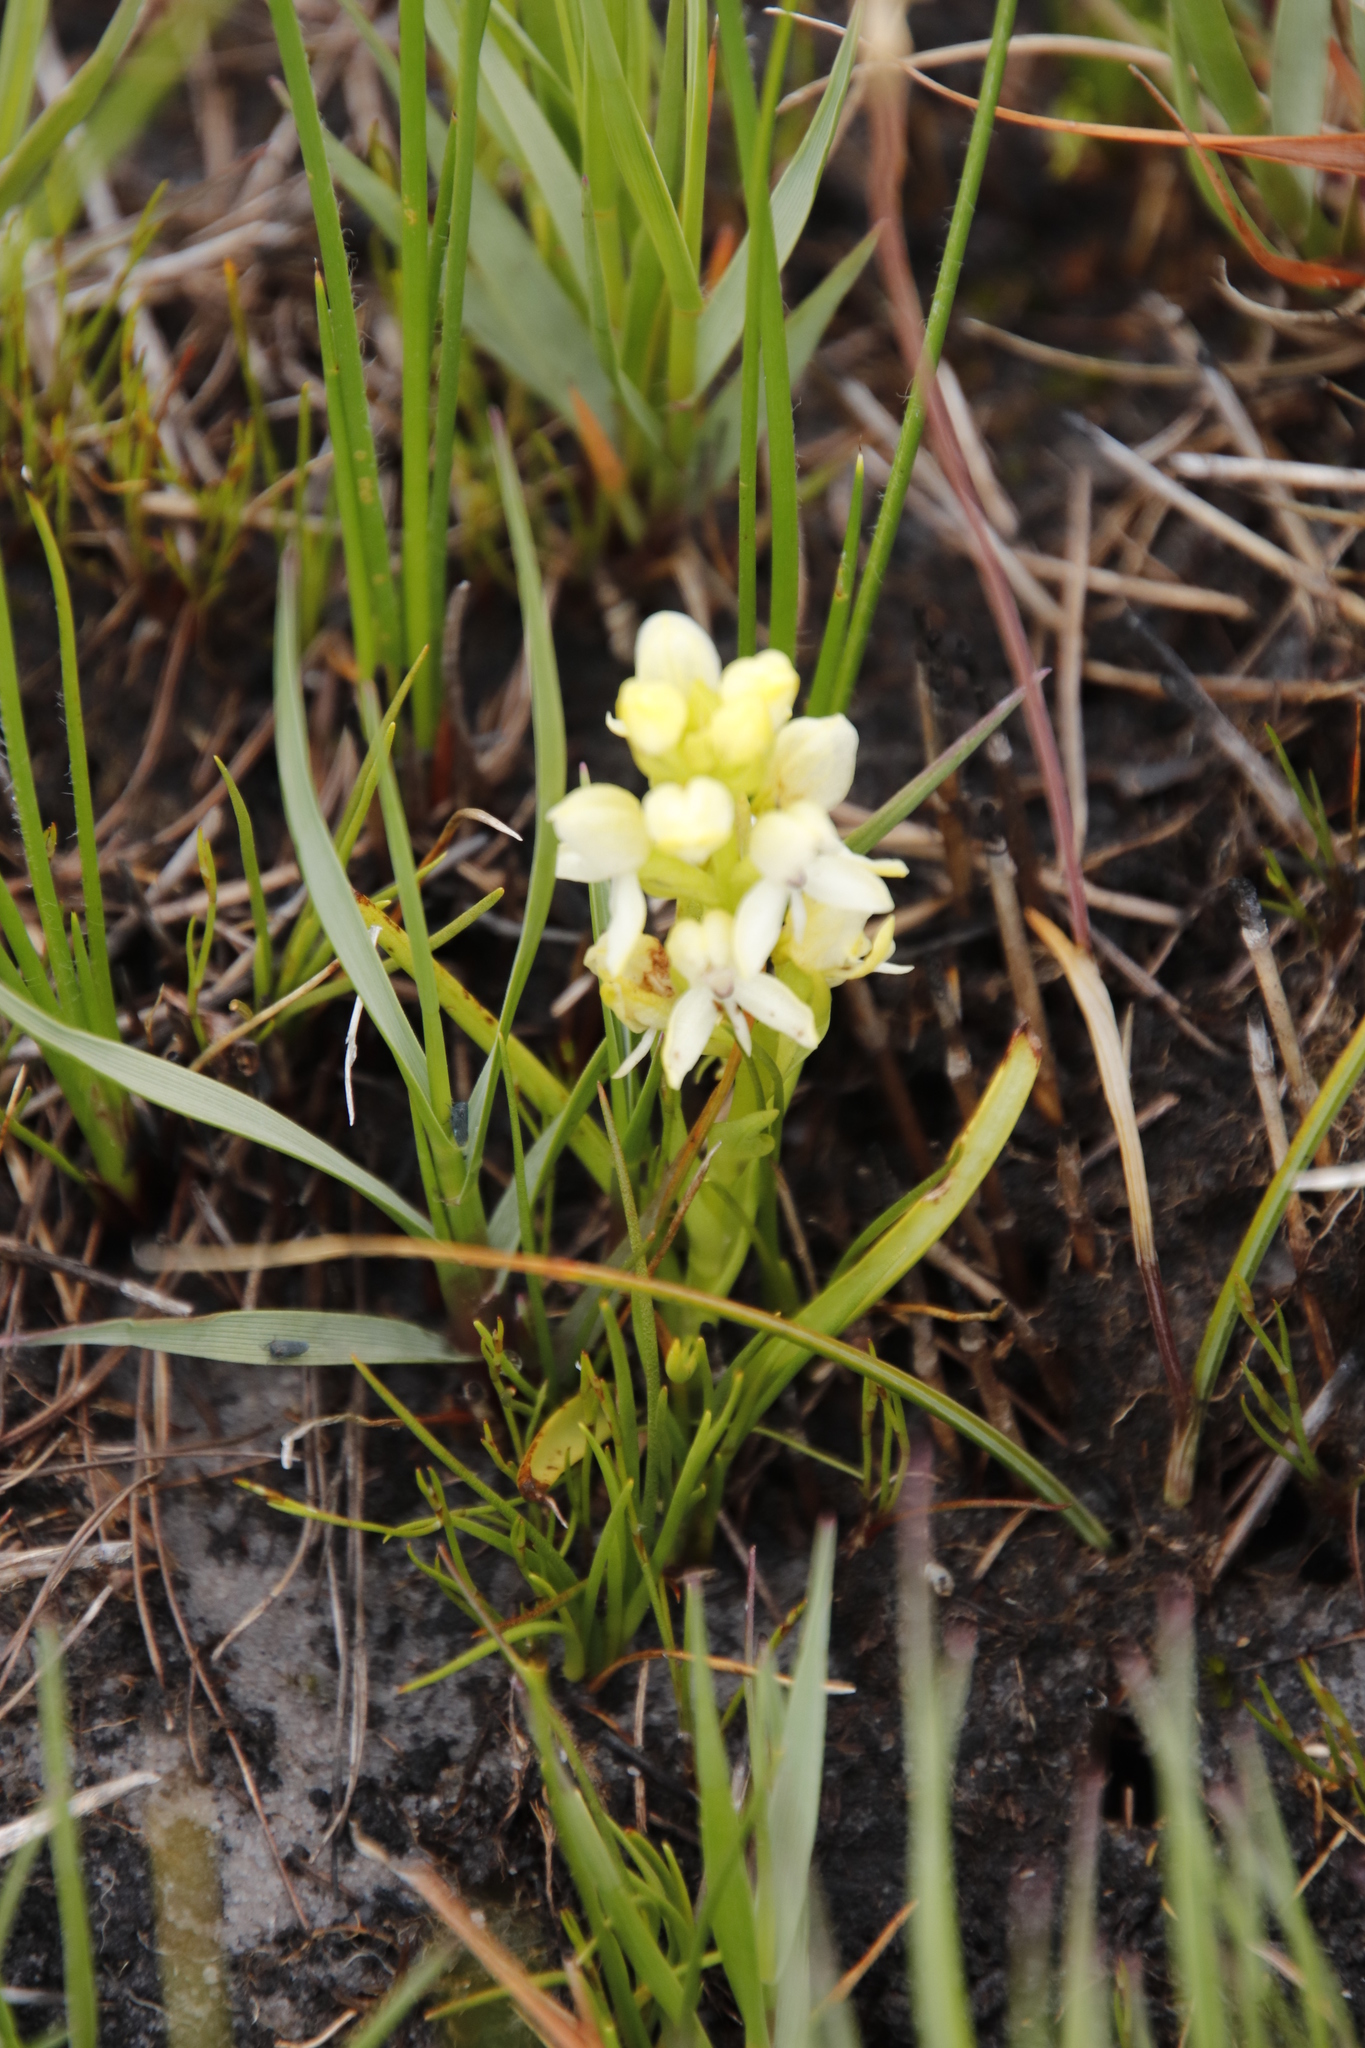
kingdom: Plantae
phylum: Tracheophyta
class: Liliopsida
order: Asparagales
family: Orchidaceae
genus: Disa
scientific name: Disa albomagentea
